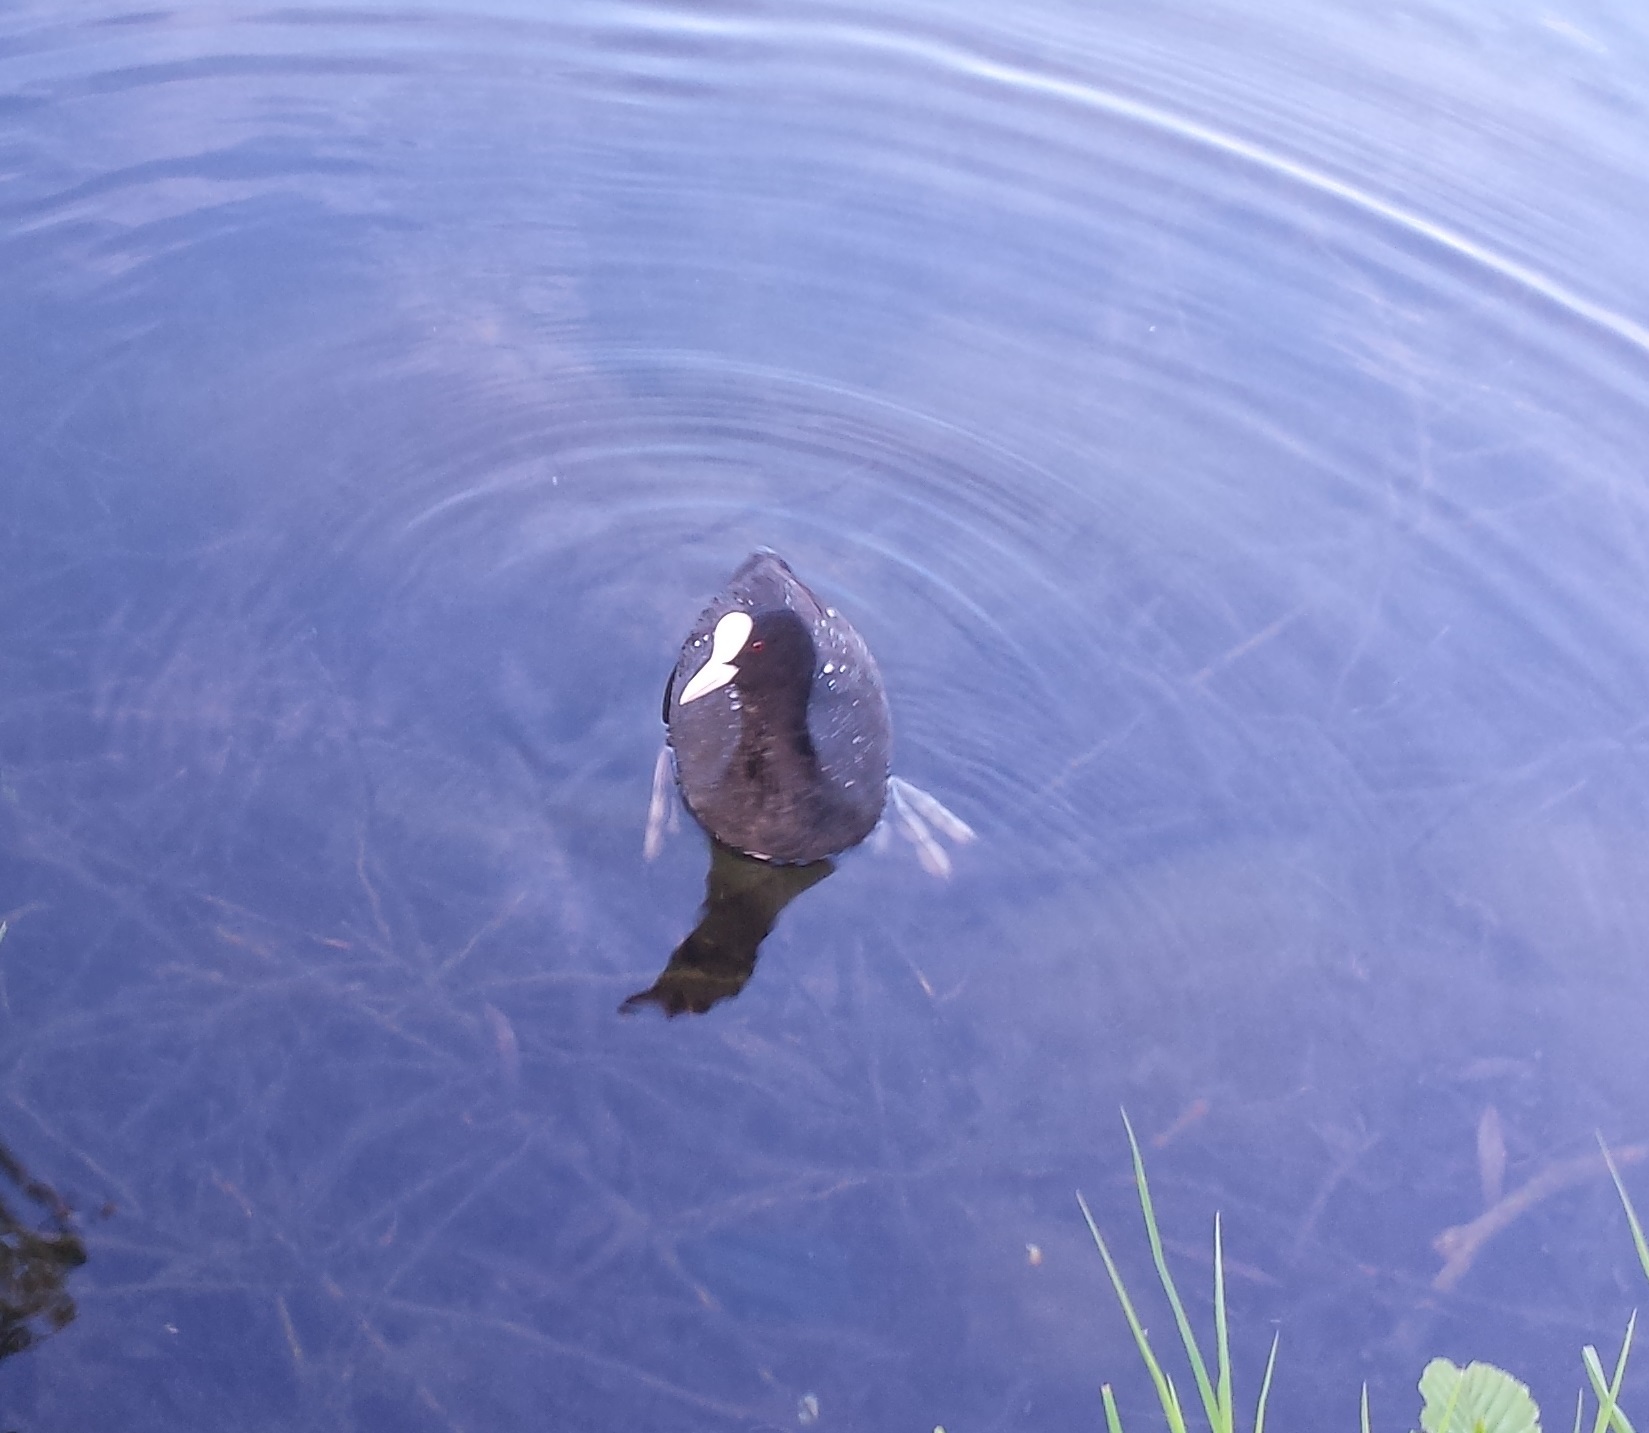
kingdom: Animalia
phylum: Chordata
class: Aves
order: Gruiformes
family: Rallidae
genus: Fulica
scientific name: Fulica atra
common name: Eurasian coot
